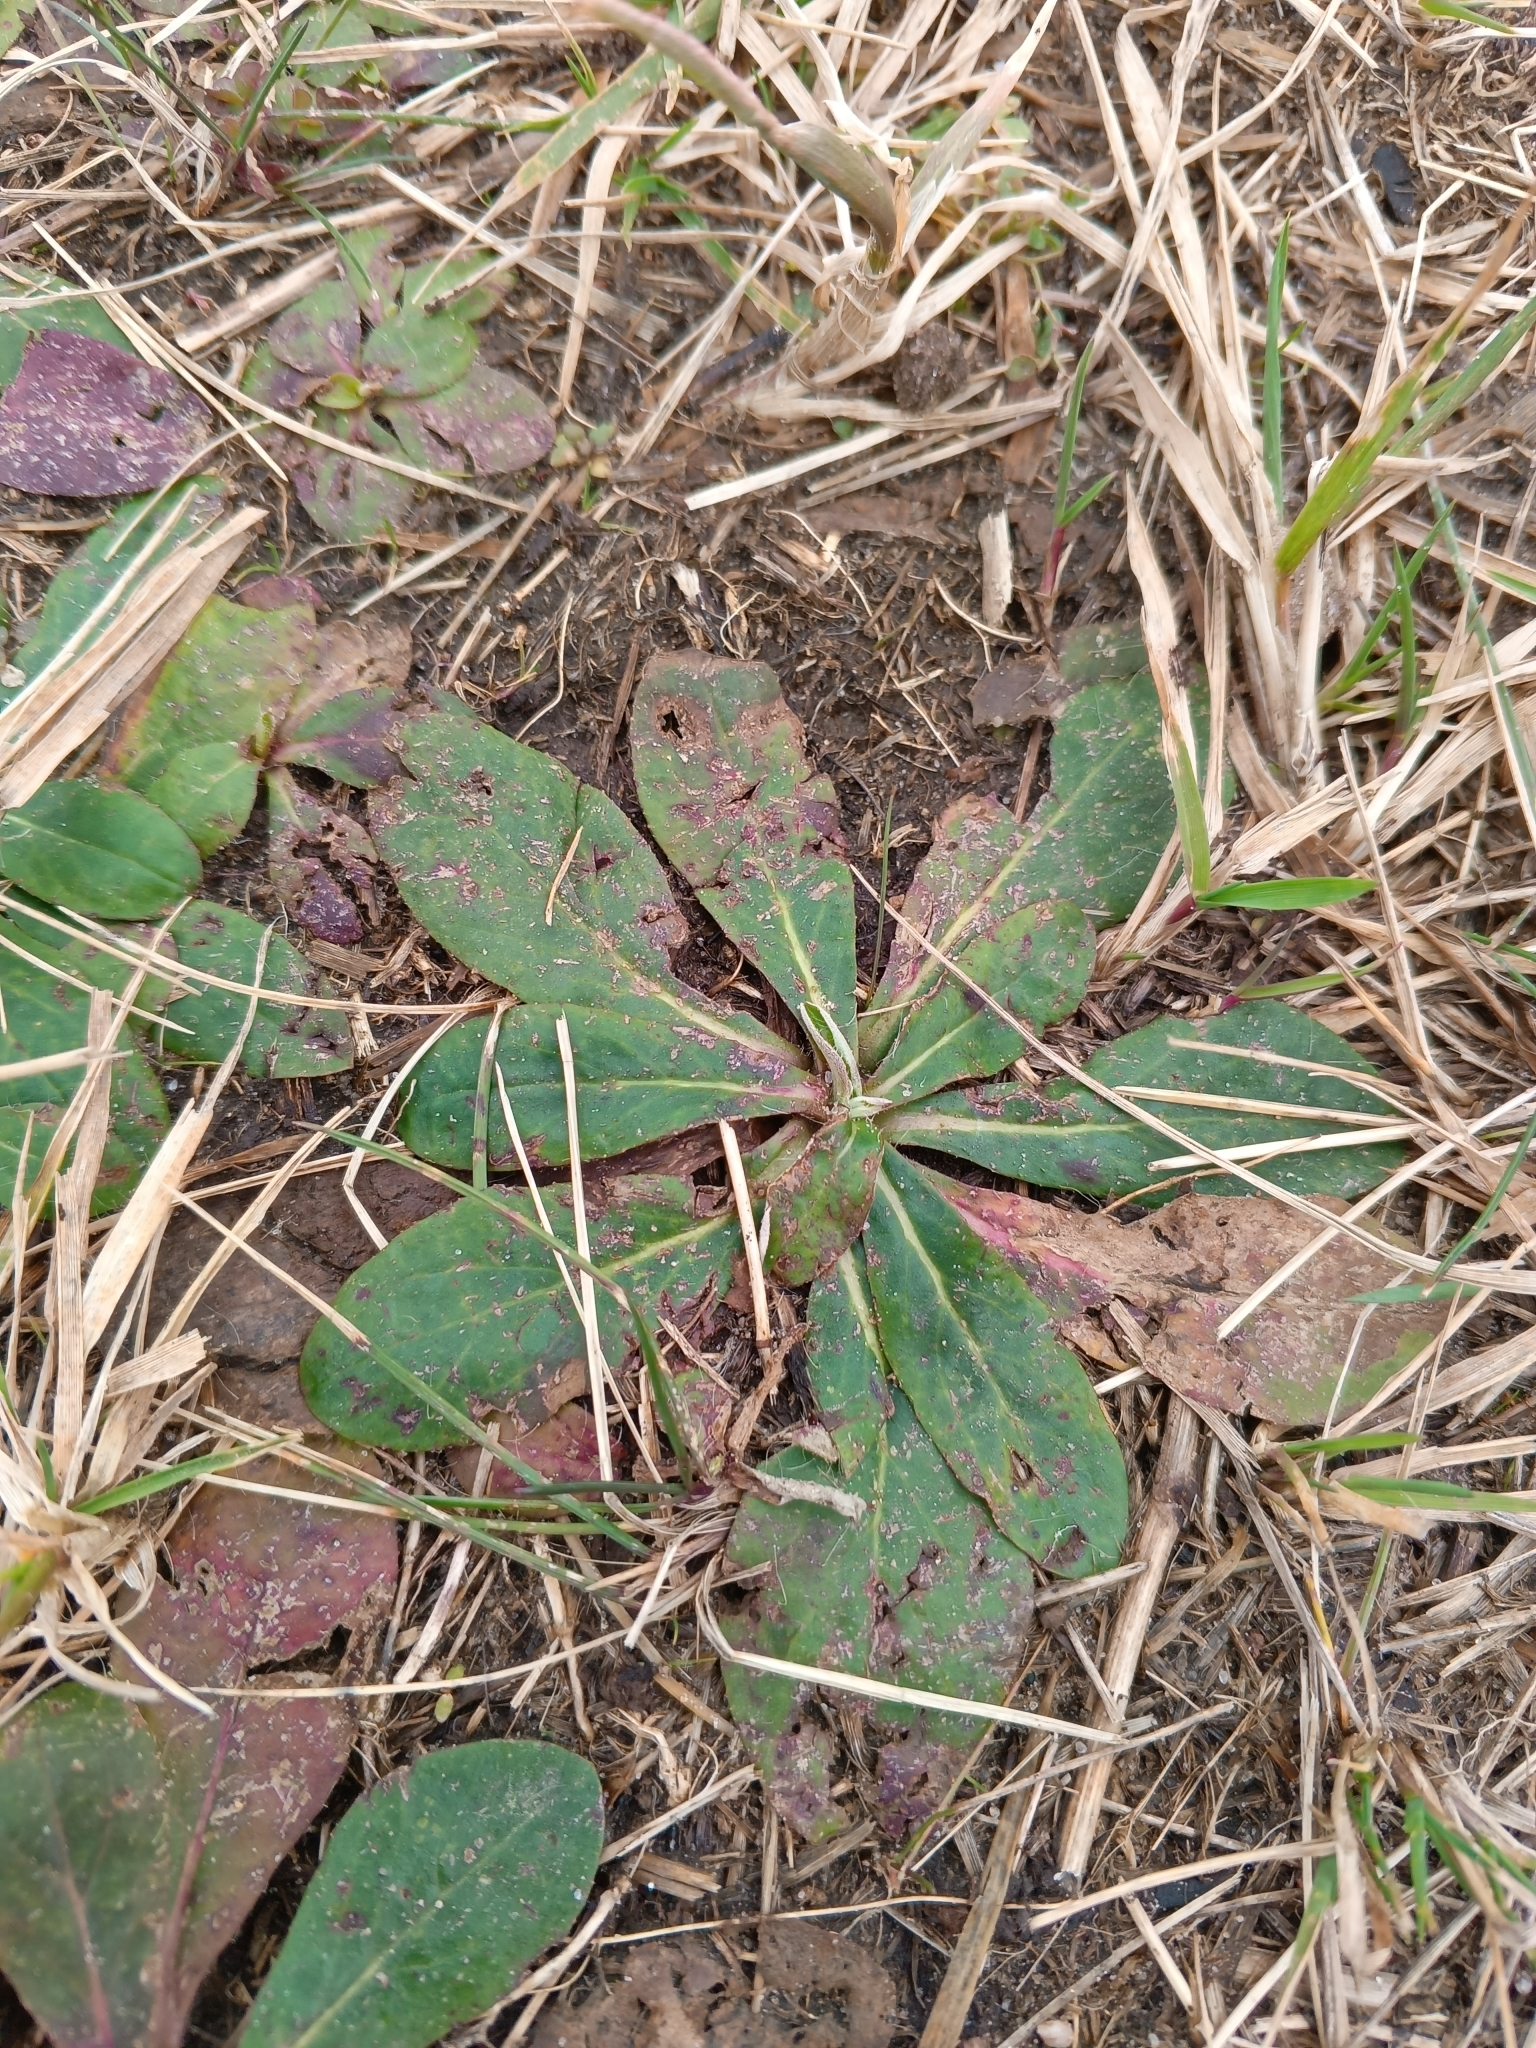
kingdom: Plantae
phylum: Tracheophyta
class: Magnoliopsida
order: Asterales
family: Asteraceae
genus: Pilosella
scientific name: Pilosella officinarum
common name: Mouse-ear hawkweed
